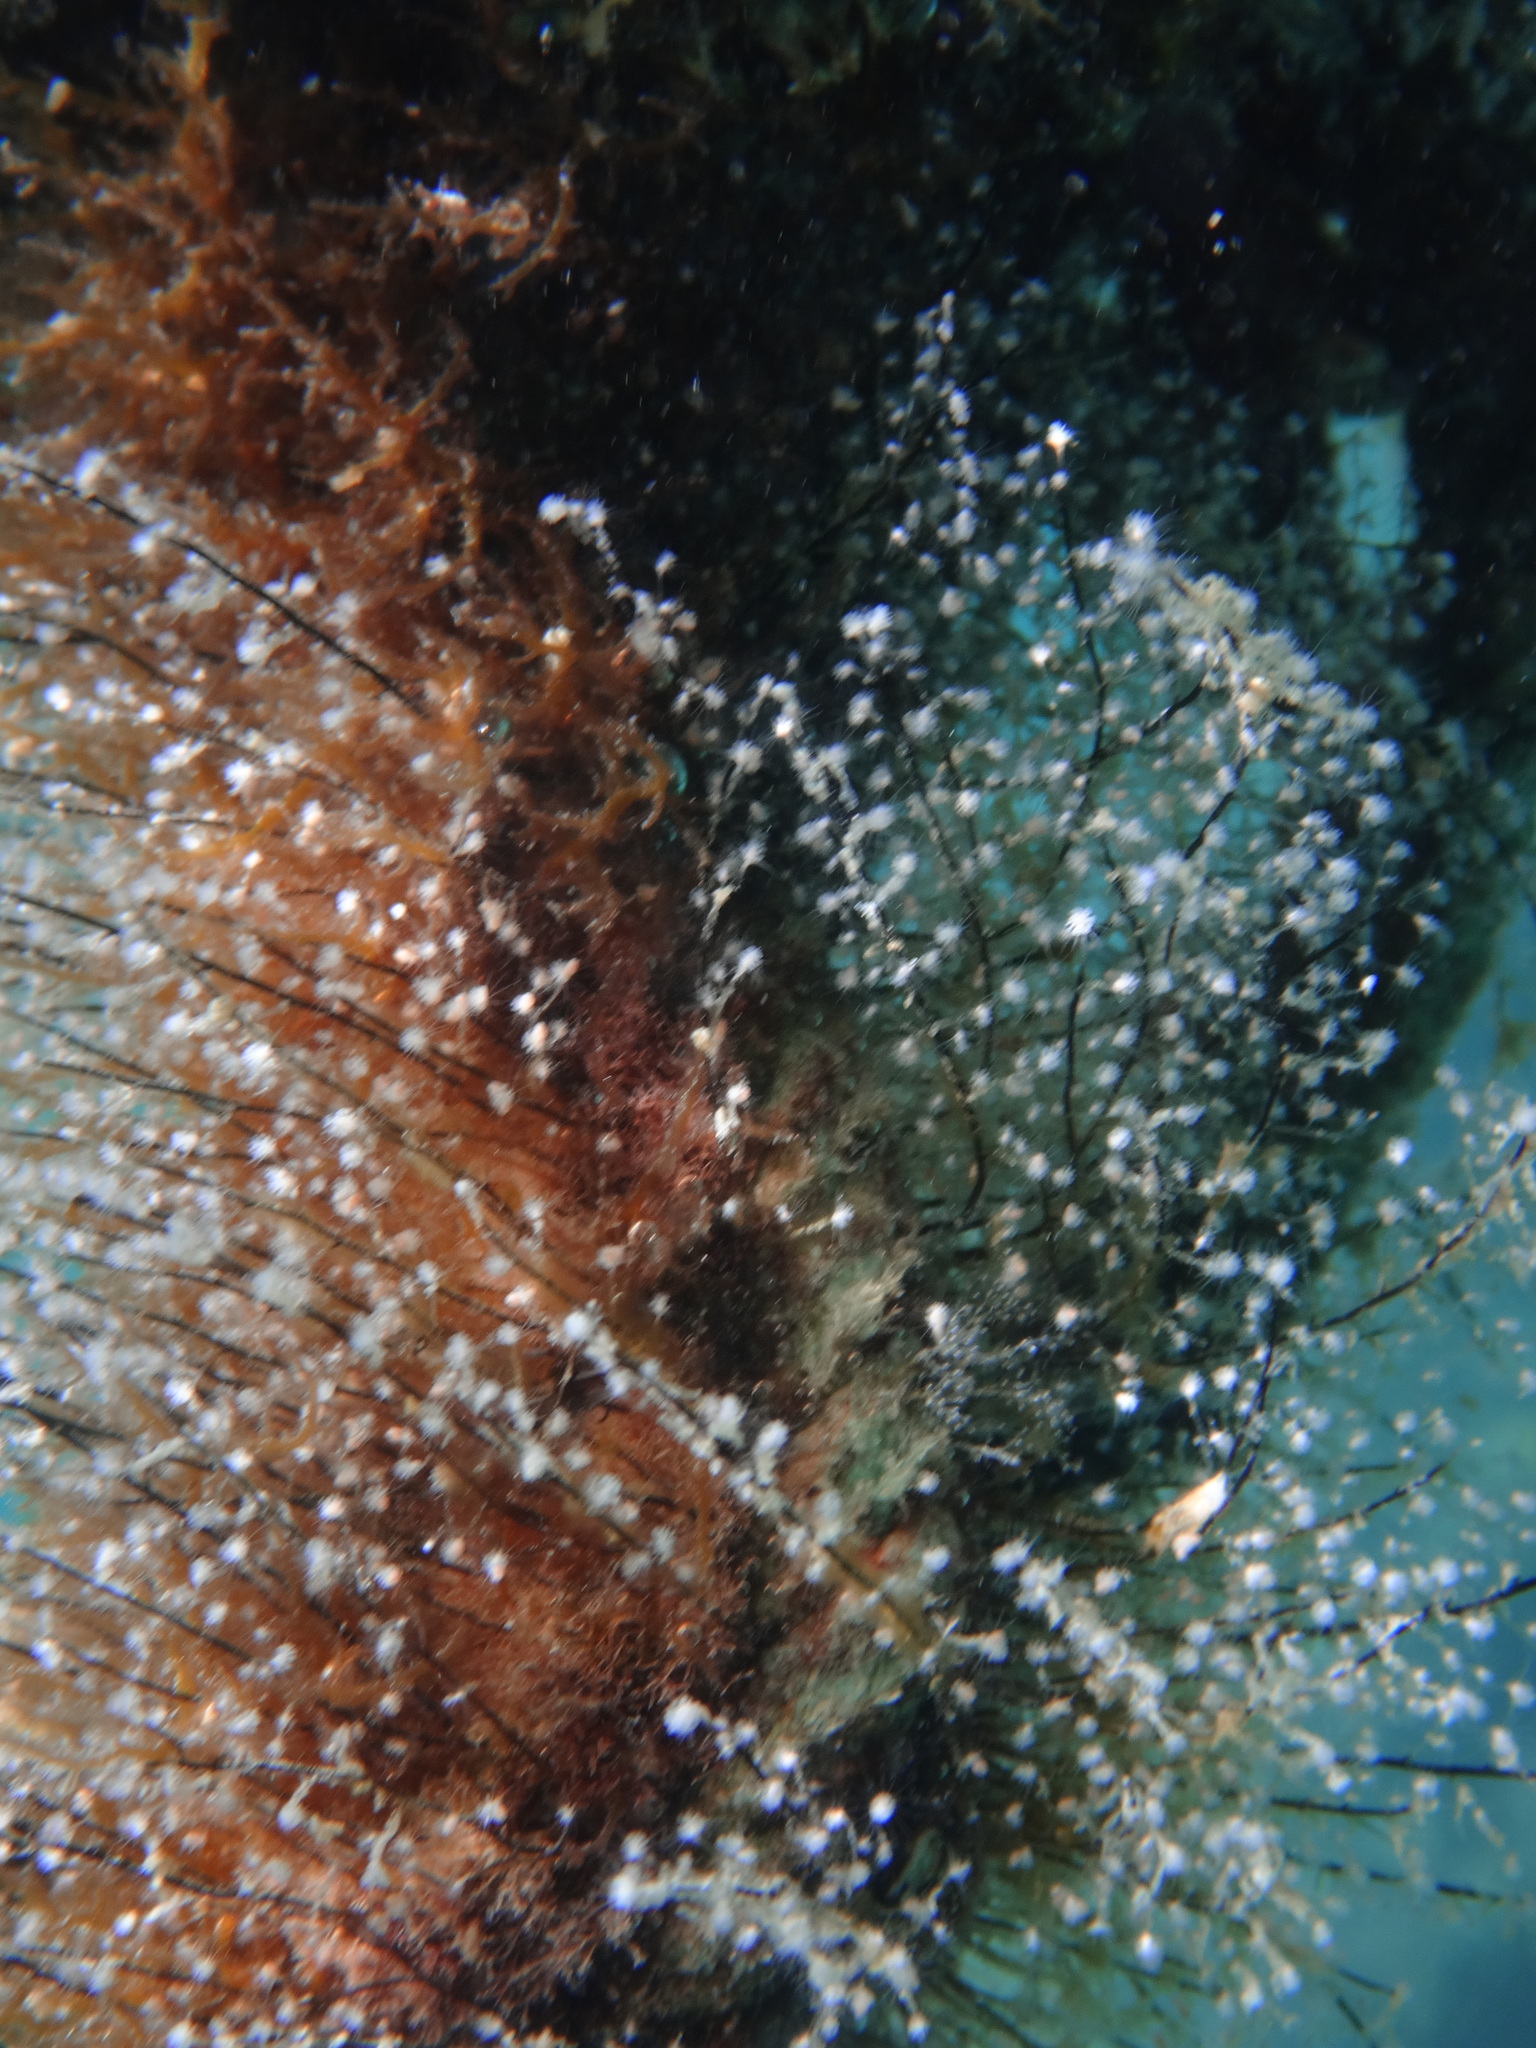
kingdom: Animalia
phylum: Cnidaria
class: Hydrozoa
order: Anthoathecata
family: Pennariidae
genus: Pennaria
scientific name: Pennaria disticha
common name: Feather hydroid
